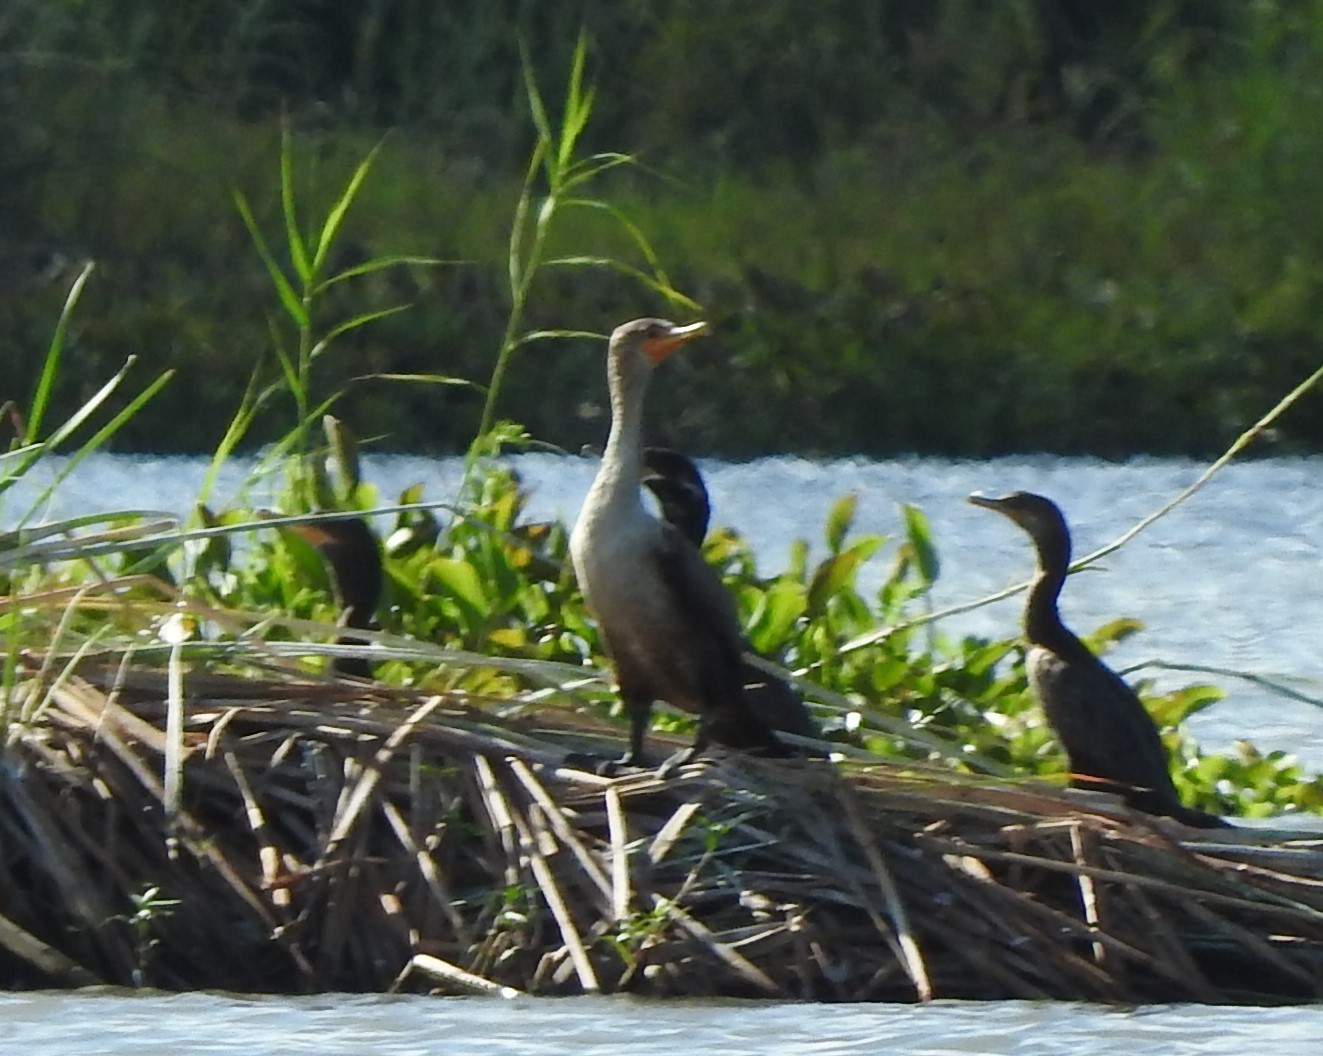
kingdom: Animalia
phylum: Chordata
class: Aves
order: Suliformes
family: Phalacrocoracidae
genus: Phalacrocorax
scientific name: Phalacrocorax auritus
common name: Double-crested cormorant
